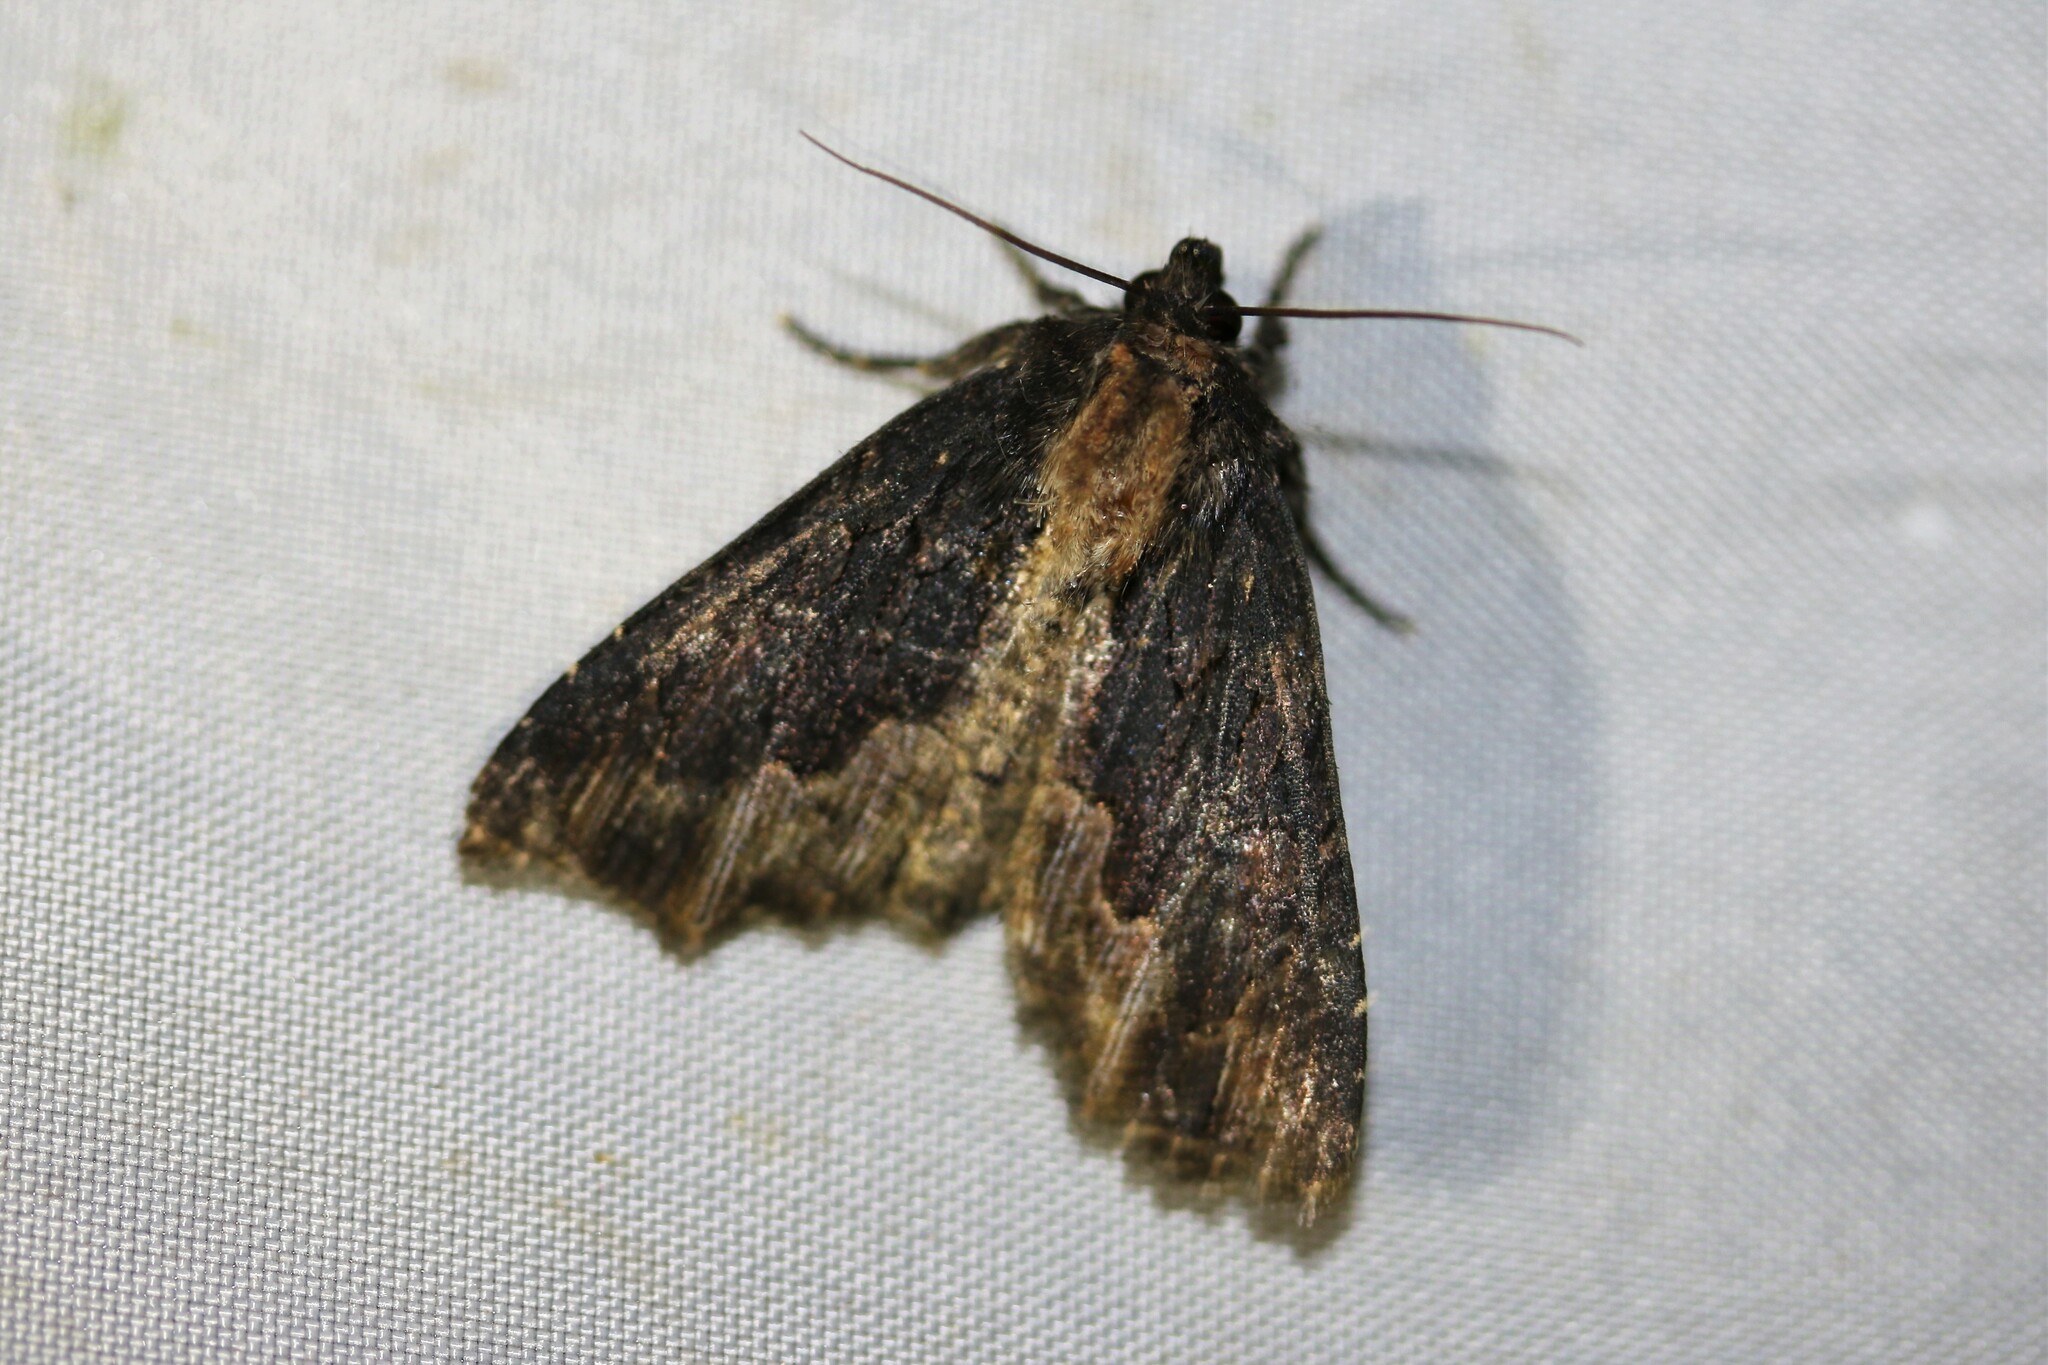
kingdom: Animalia
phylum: Arthropoda
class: Insecta
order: Lepidoptera
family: Noctuidae
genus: Dypterygia
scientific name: Dypterygia scabriuscula
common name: Bird's wing
